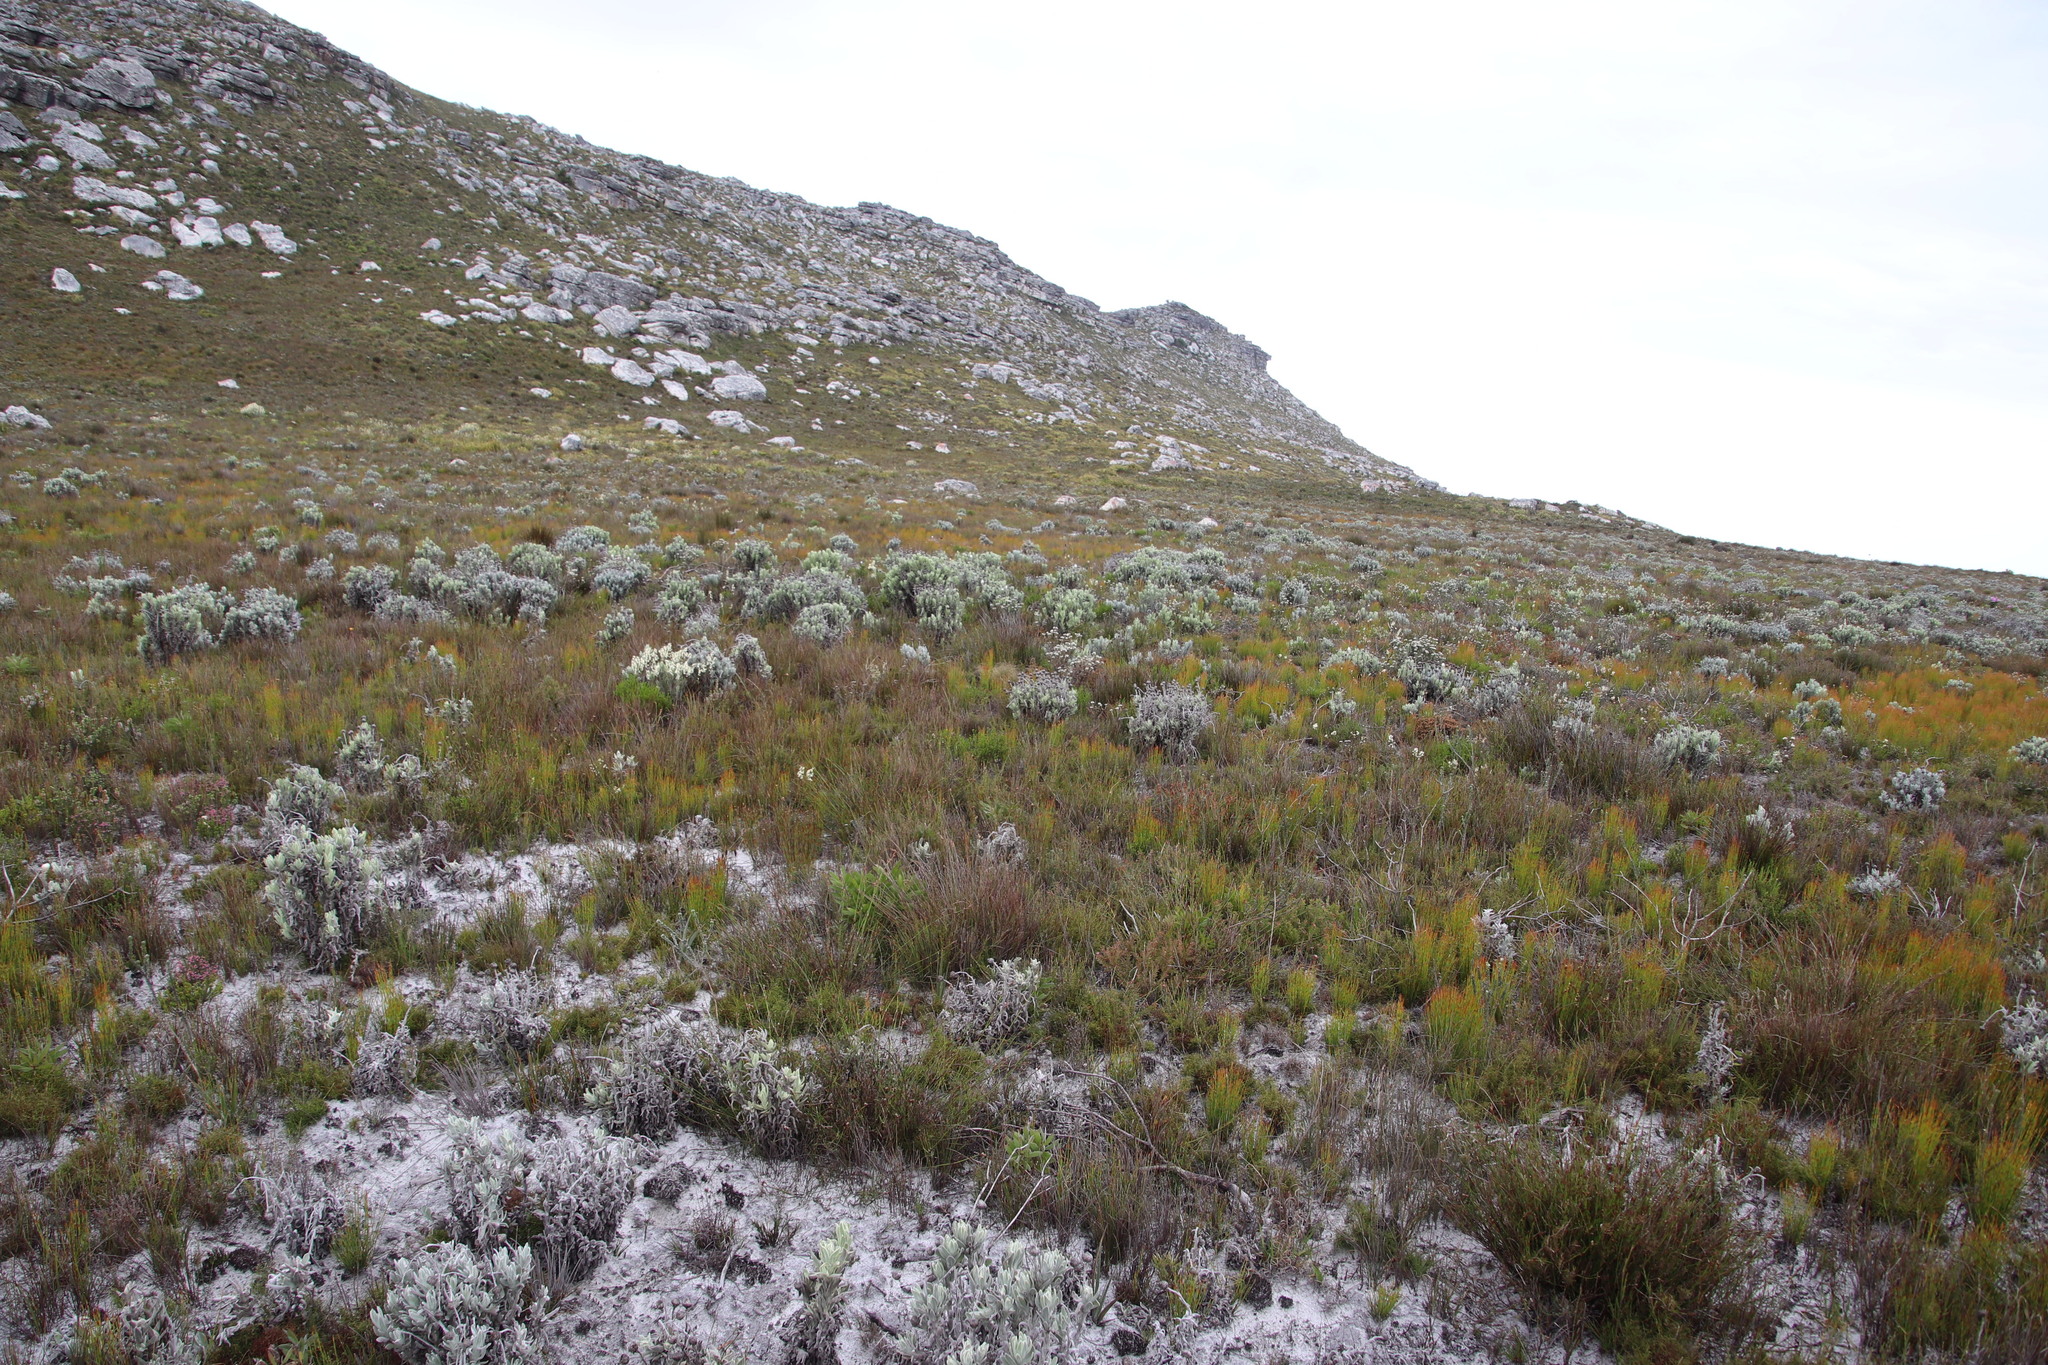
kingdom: Plantae
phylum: Tracheophyta
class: Magnoliopsida
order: Asterales
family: Asteraceae
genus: Syncarpha
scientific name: Syncarpha vestita
